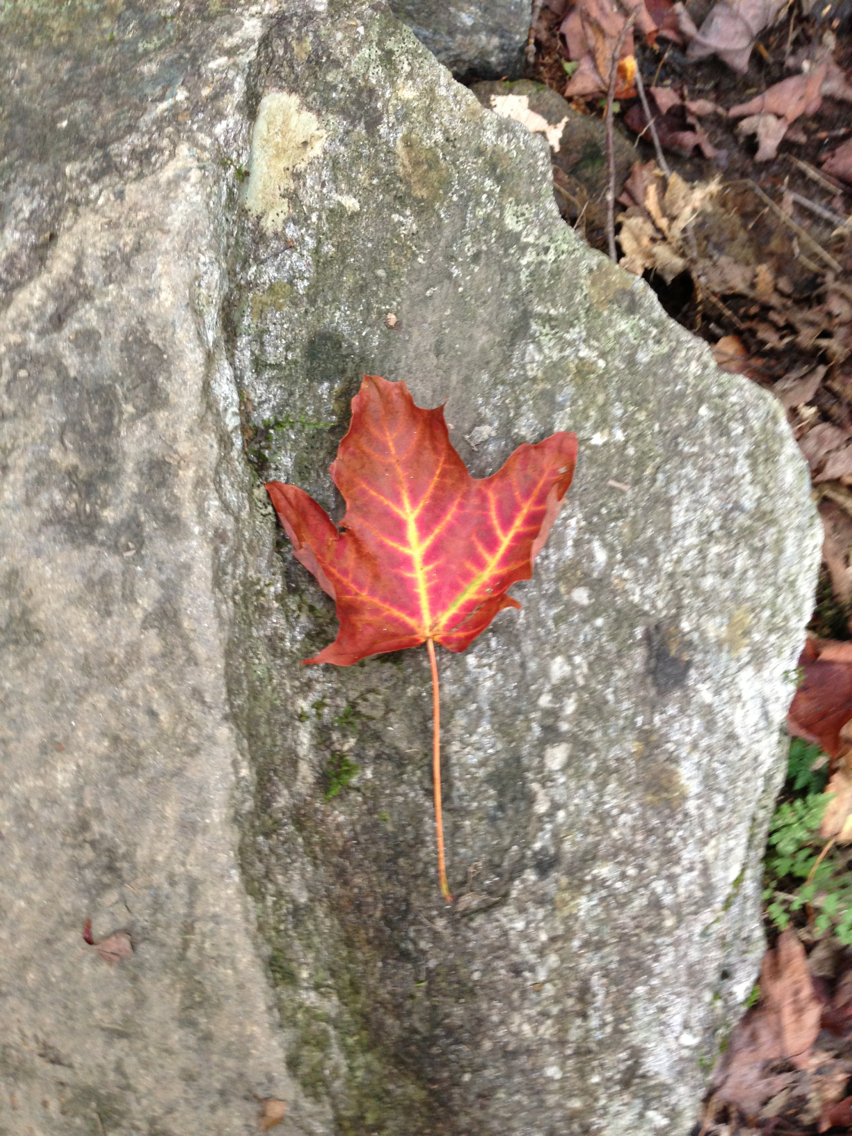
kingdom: Plantae
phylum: Tracheophyta
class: Magnoliopsida
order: Sapindales
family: Sapindaceae
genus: Acer
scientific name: Acer saccharum
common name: Sugar maple
